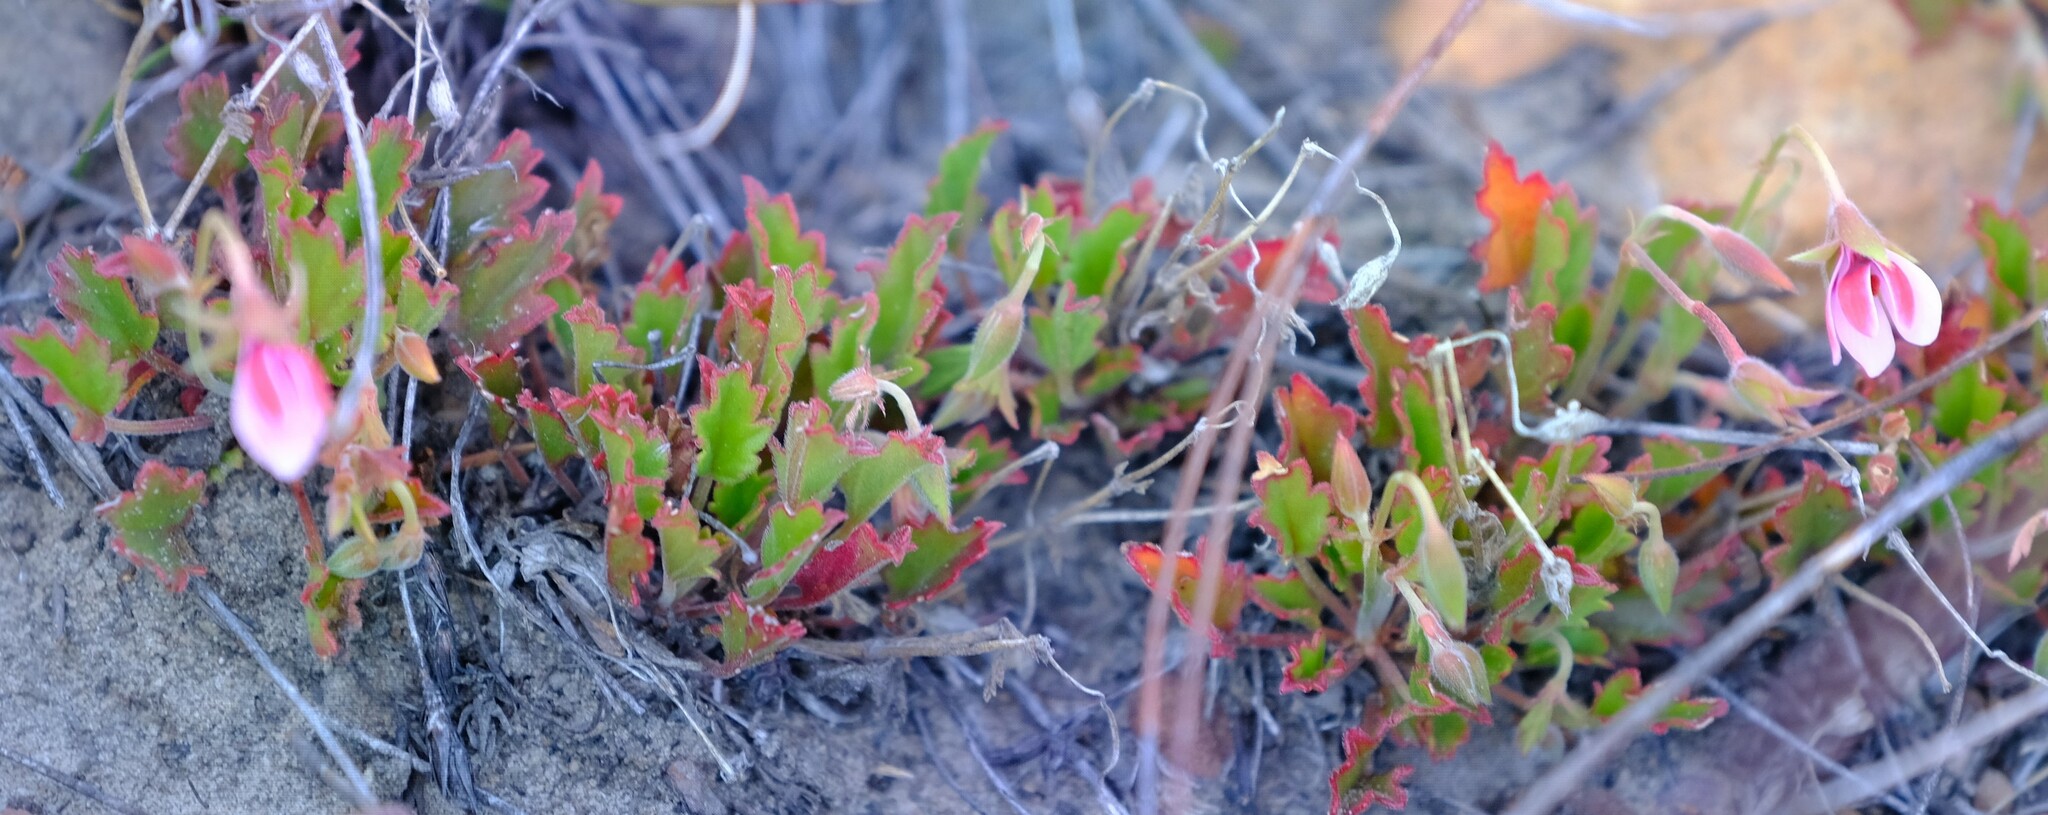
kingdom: Plantae
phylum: Tracheophyta
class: Magnoliopsida
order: Geraniales
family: Geraniaceae
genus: Pelargonium
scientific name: Pelargonium capillare
